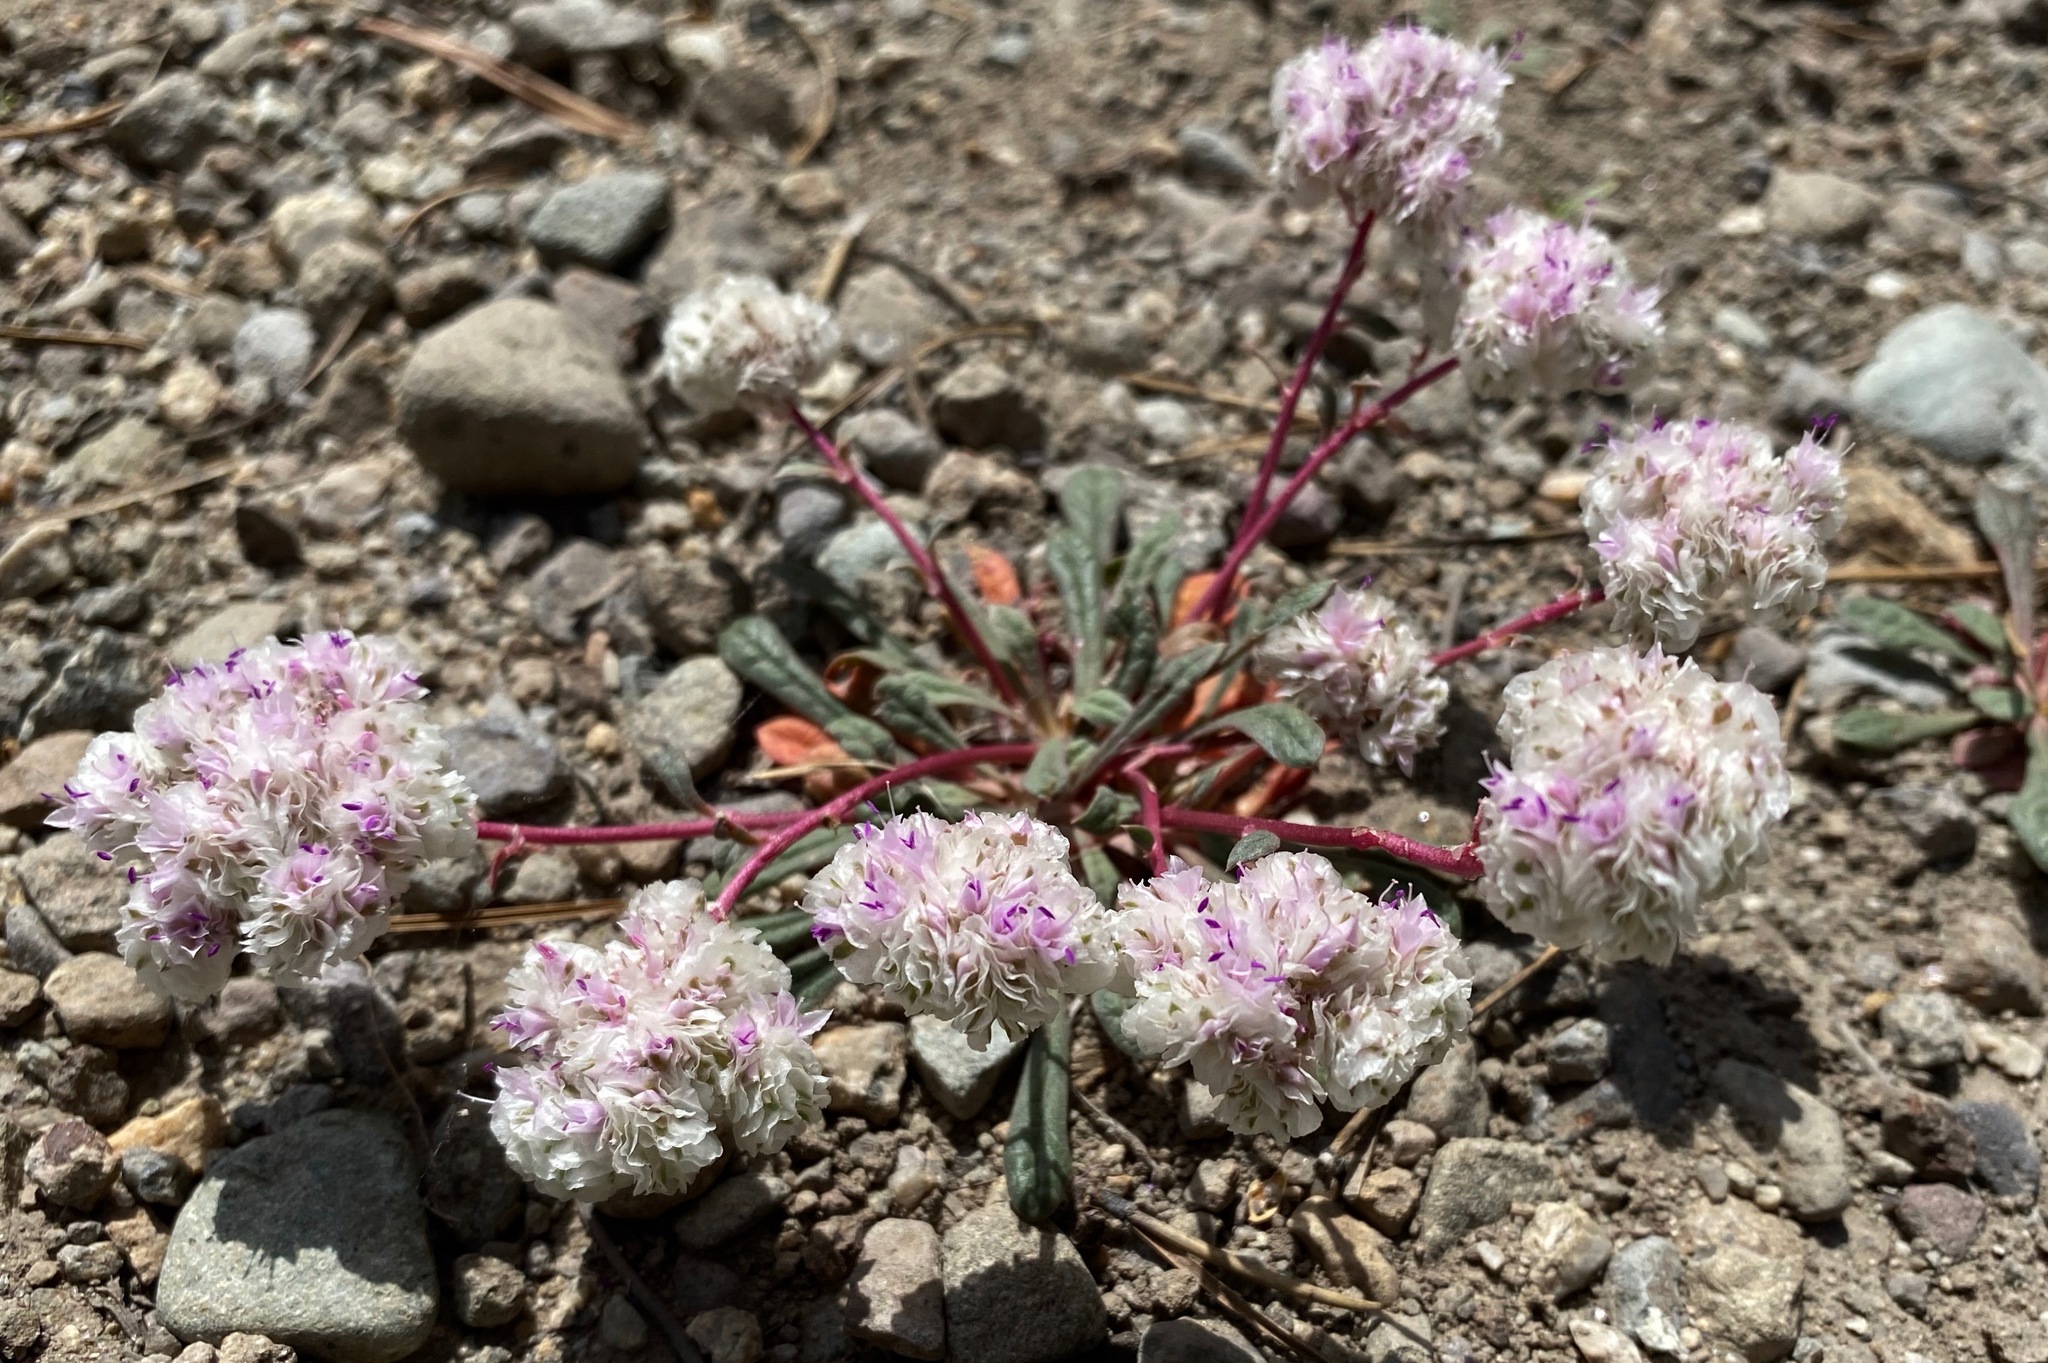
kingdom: Plantae
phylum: Tracheophyta
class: Magnoliopsida
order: Caryophyllales
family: Montiaceae
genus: Calyptridium
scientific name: Calyptridium monospermum
